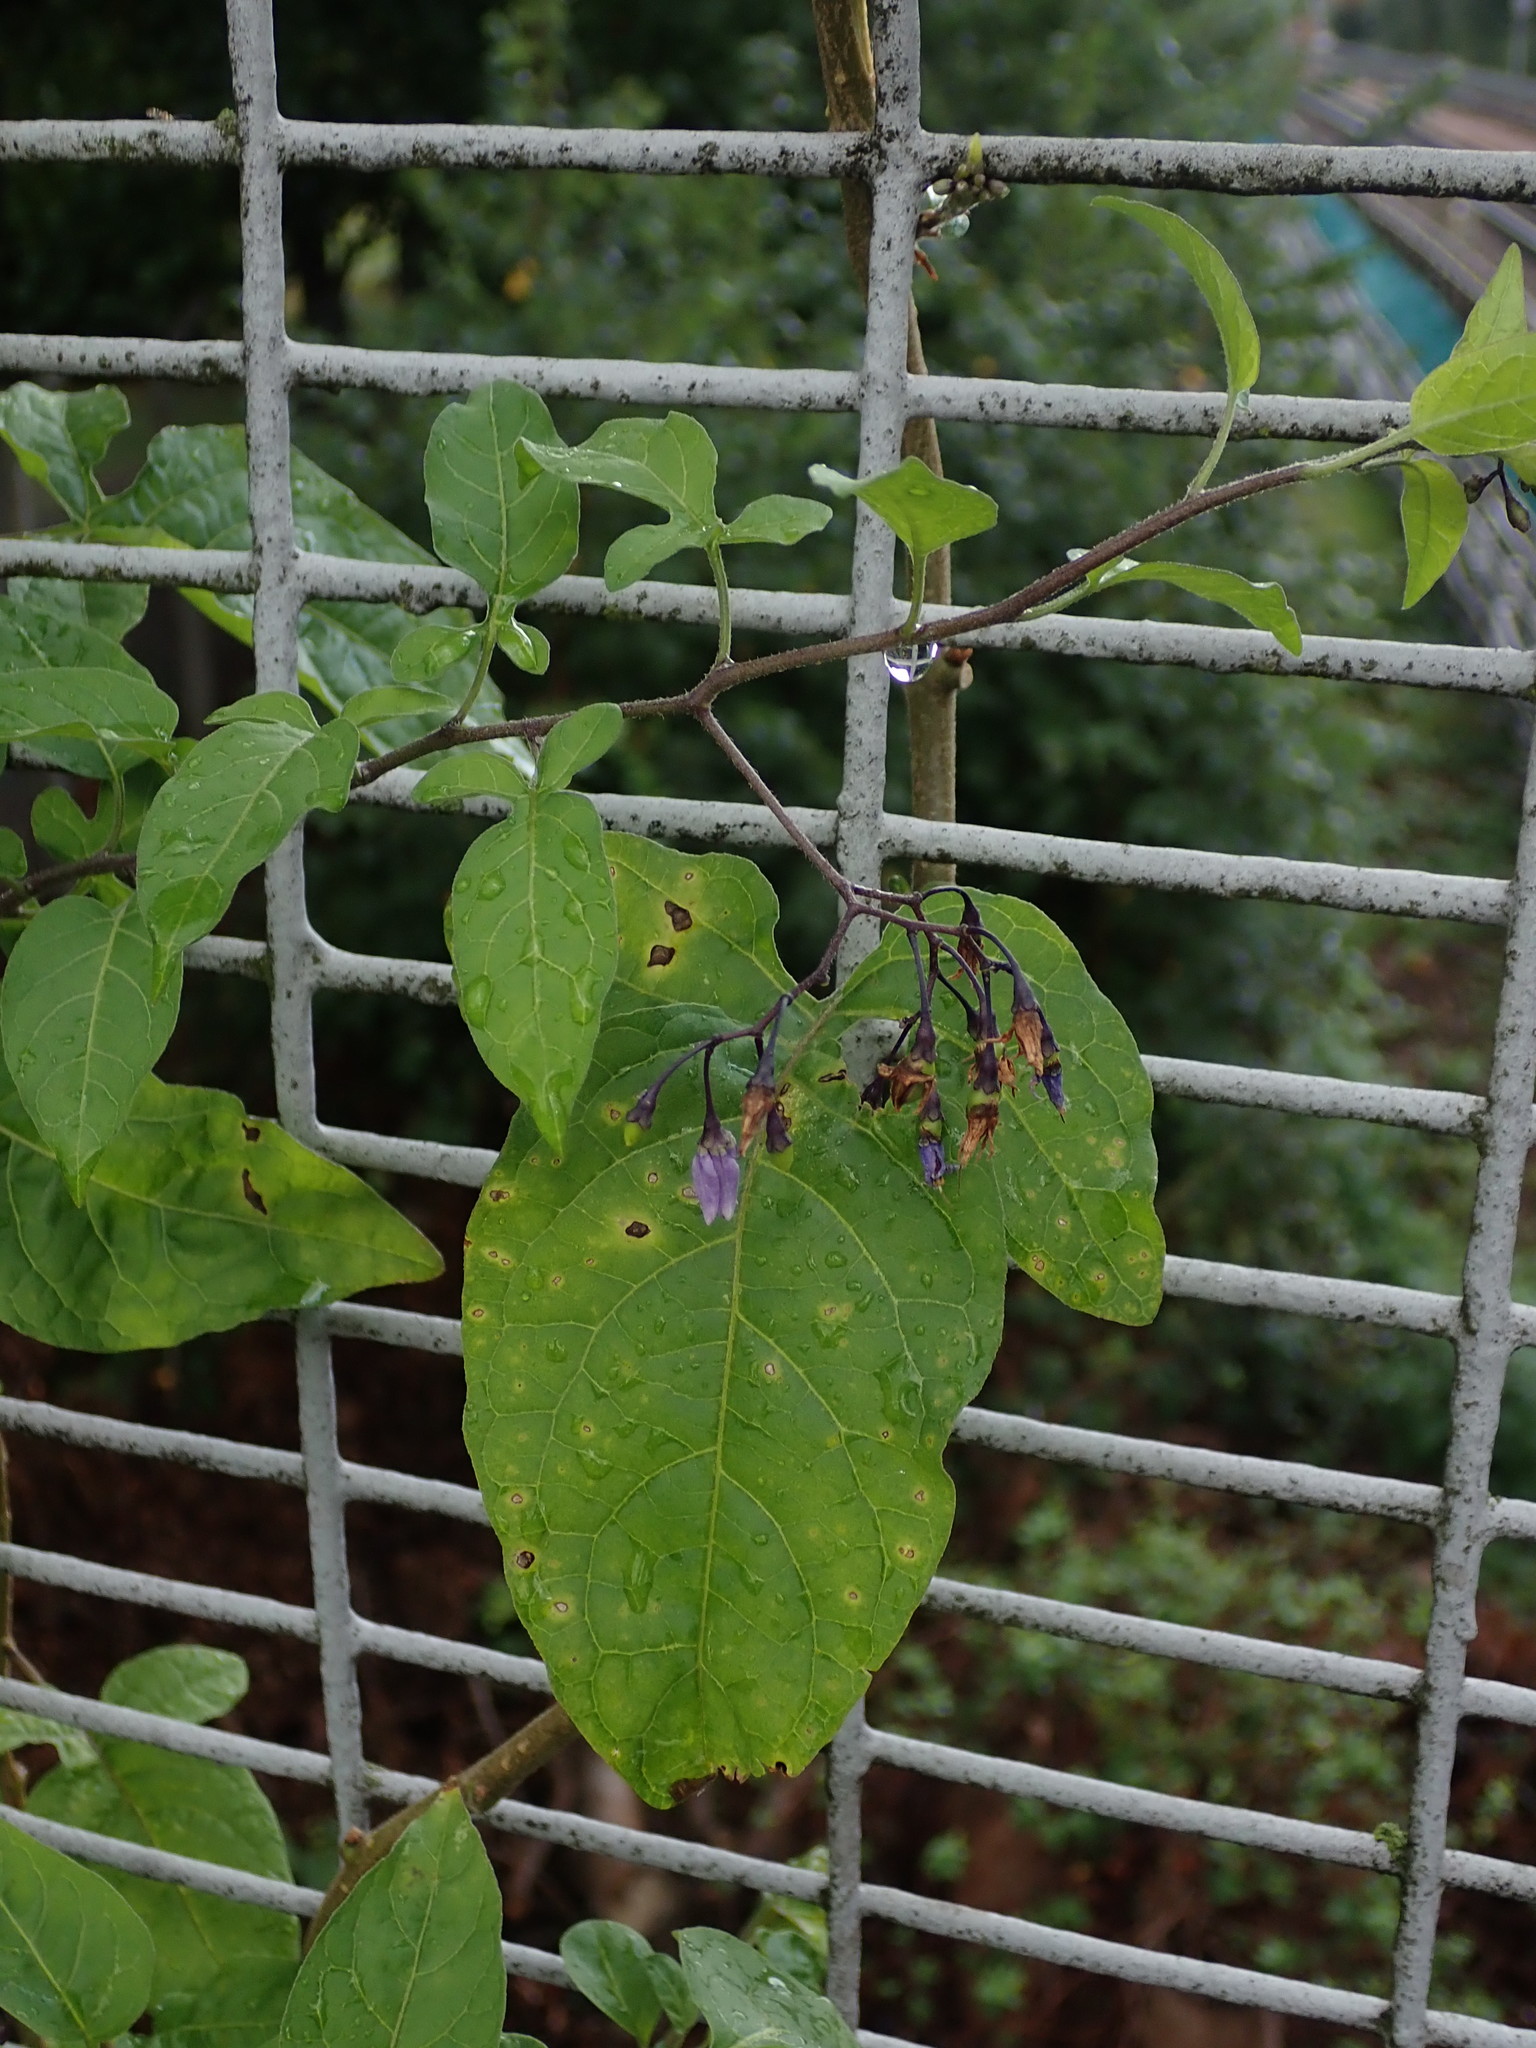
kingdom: Plantae
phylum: Tracheophyta
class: Magnoliopsida
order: Solanales
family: Solanaceae
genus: Solanum
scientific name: Solanum dulcamara
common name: Climbing nightshade
